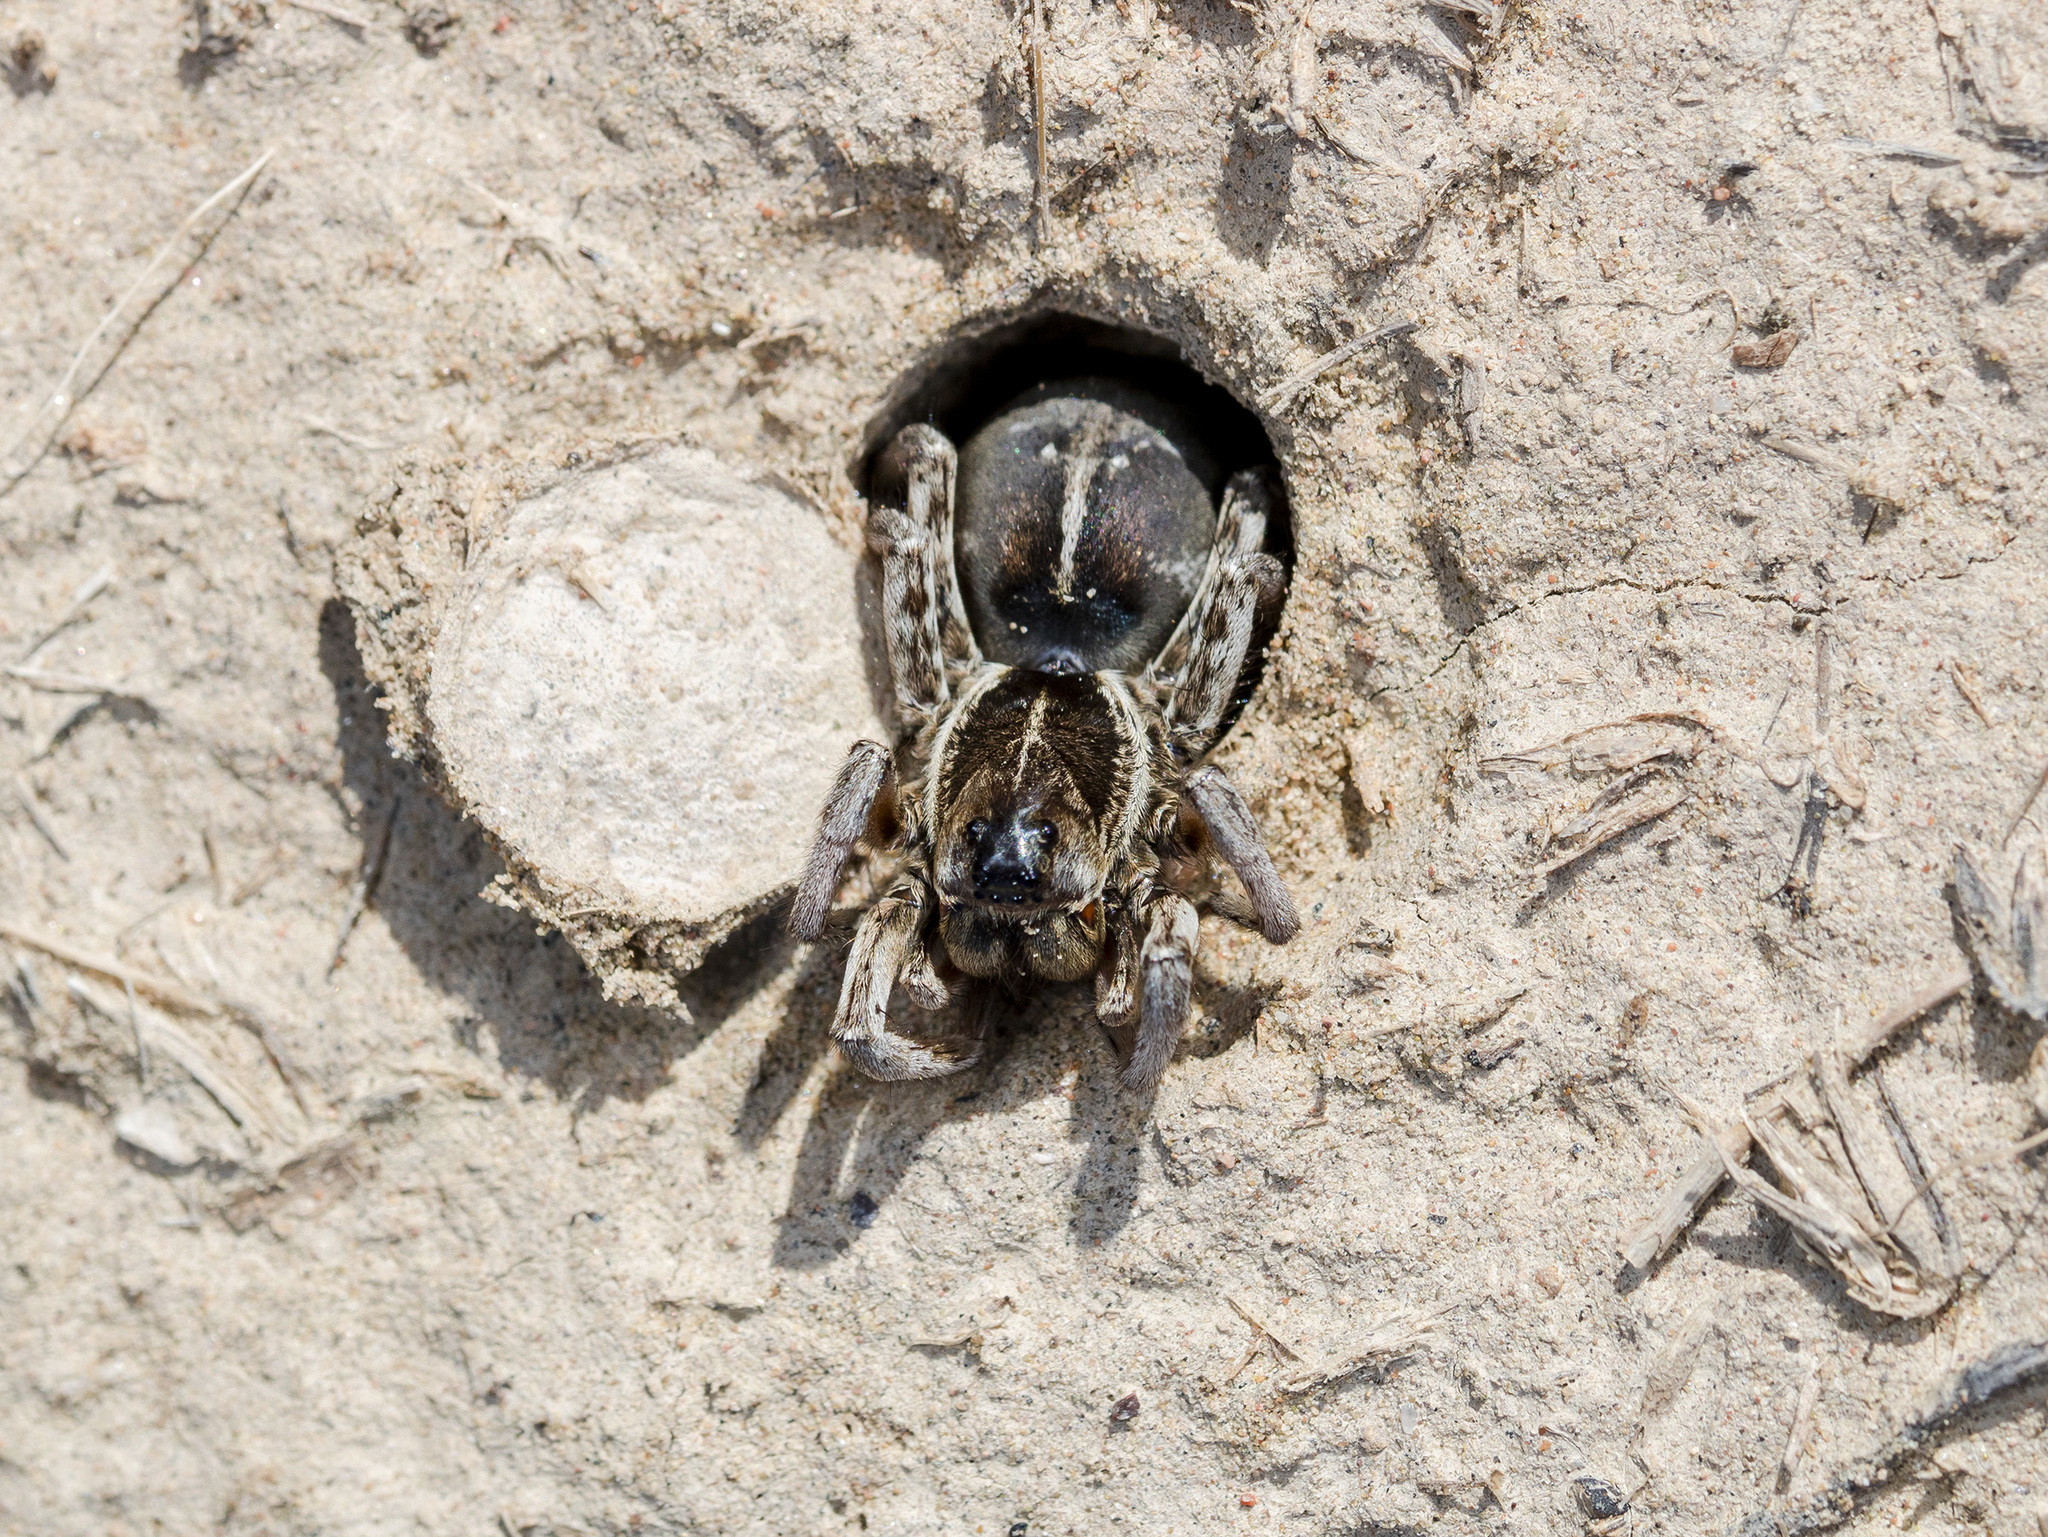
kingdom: Animalia
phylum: Arthropoda
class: Arachnida
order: Araneae
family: Lycosidae
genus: Alopecosa
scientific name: Alopecosa marikovskyi
